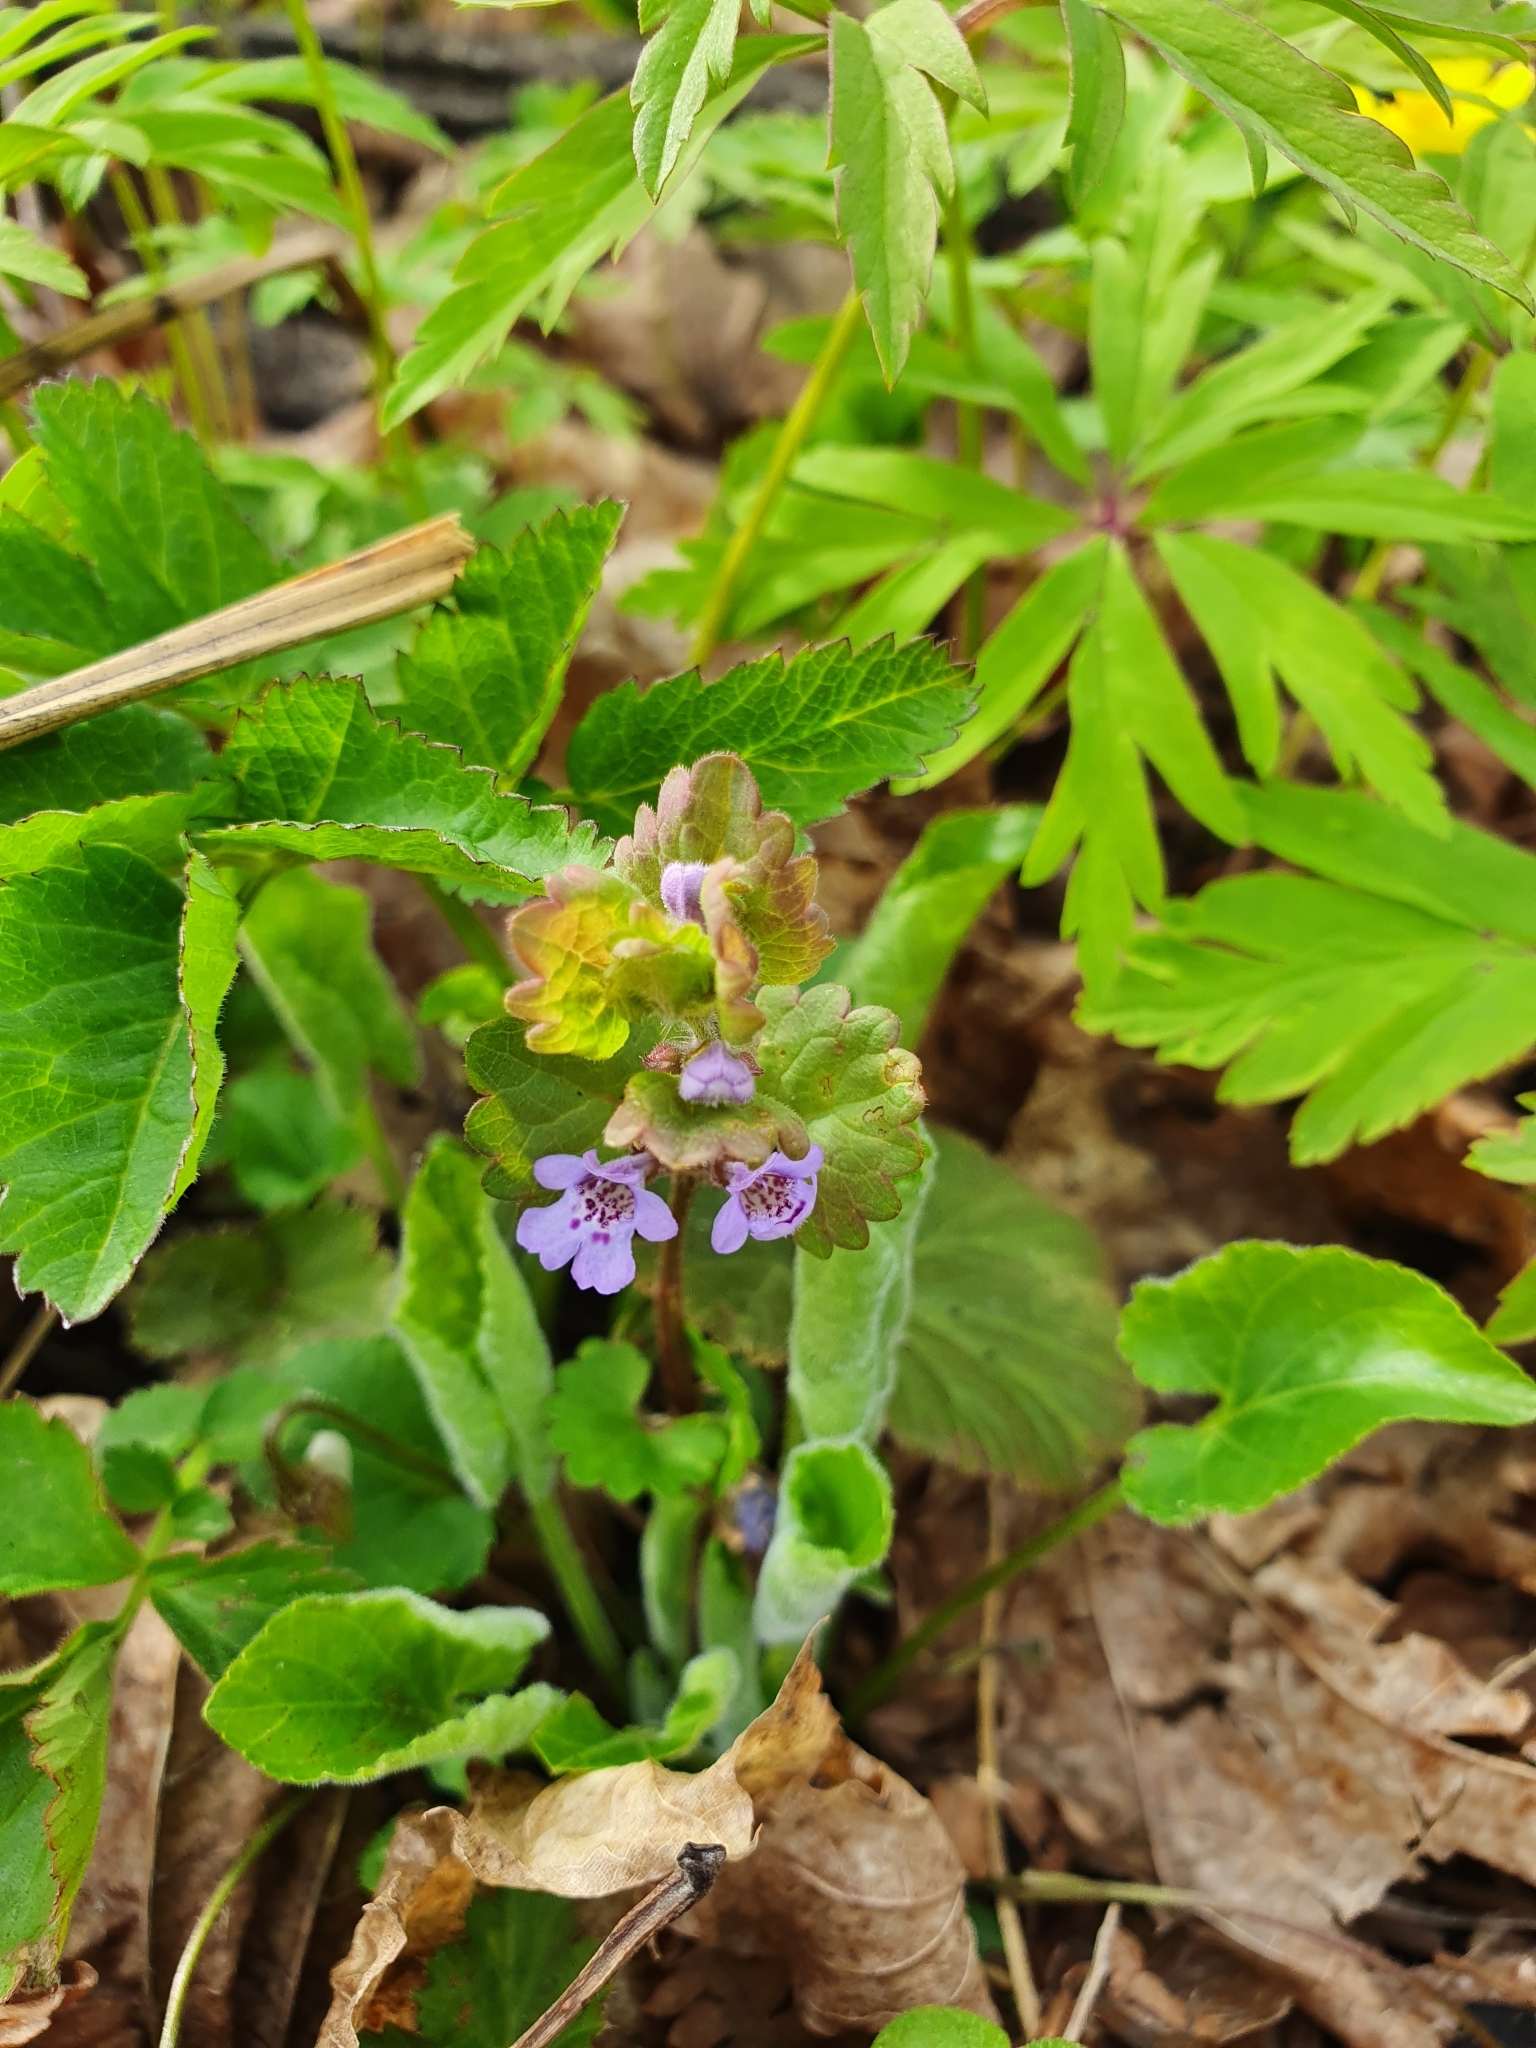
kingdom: Plantae
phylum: Tracheophyta
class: Magnoliopsida
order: Lamiales
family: Lamiaceae
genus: Glechoma
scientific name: Glechoma hederacea
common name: Ground ivy
